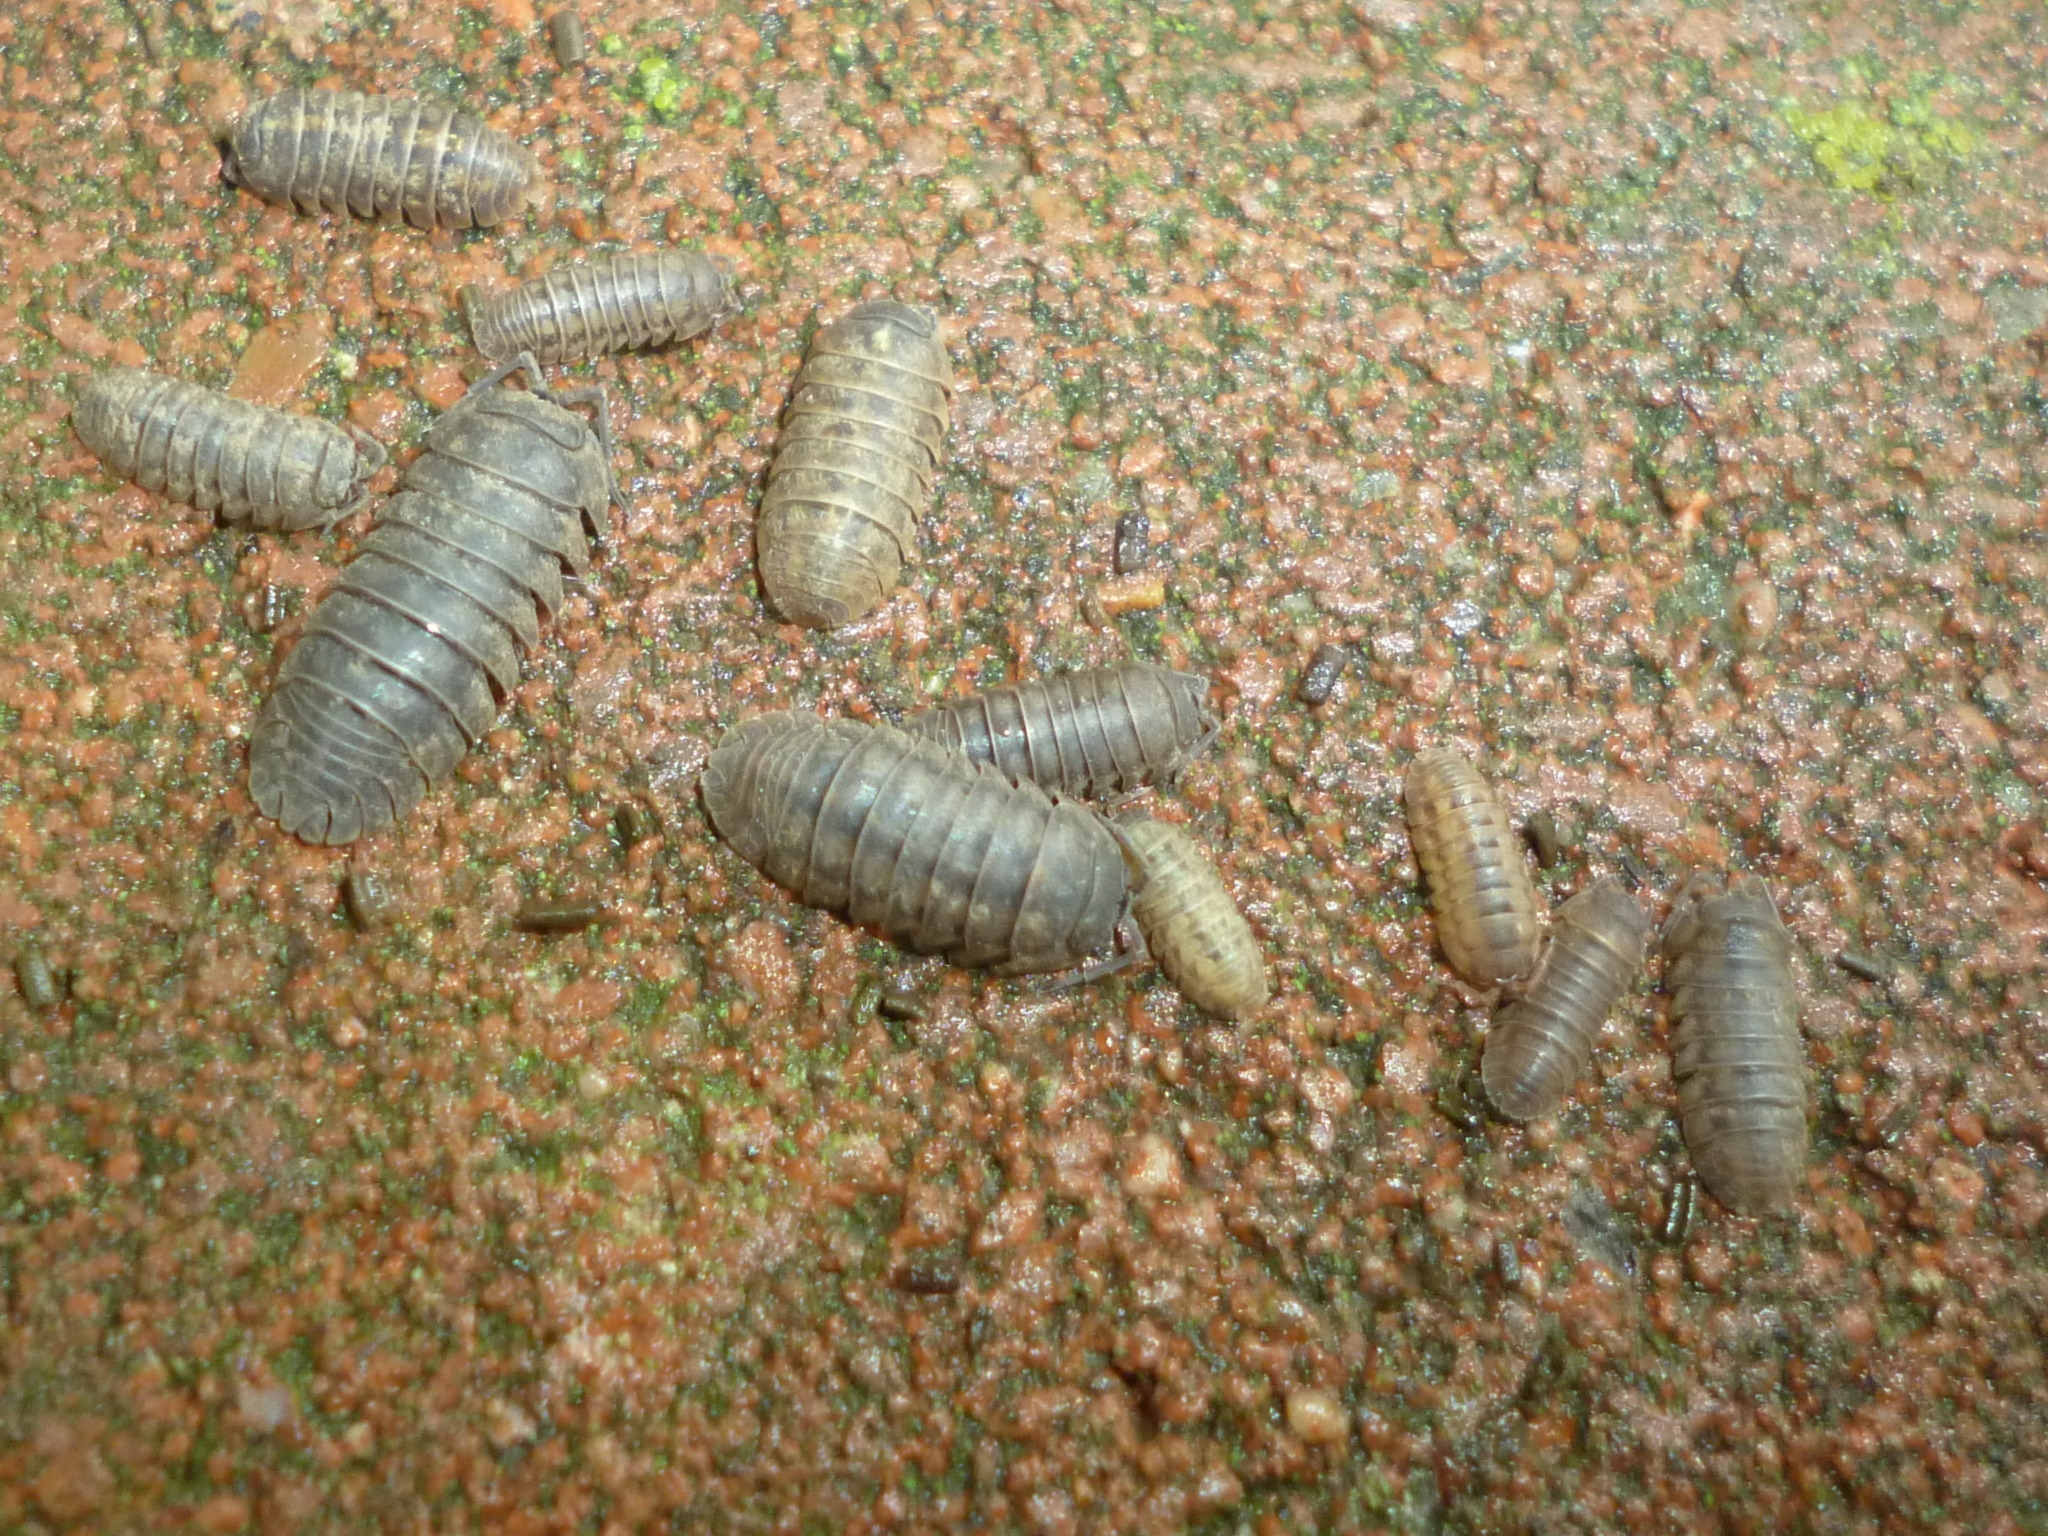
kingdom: Animalia
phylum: Arthropoda
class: Malacostraca
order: Isopoda
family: Armadillidiidae
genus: Armadillidium
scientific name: Armadillidium nasatum
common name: Isopod
